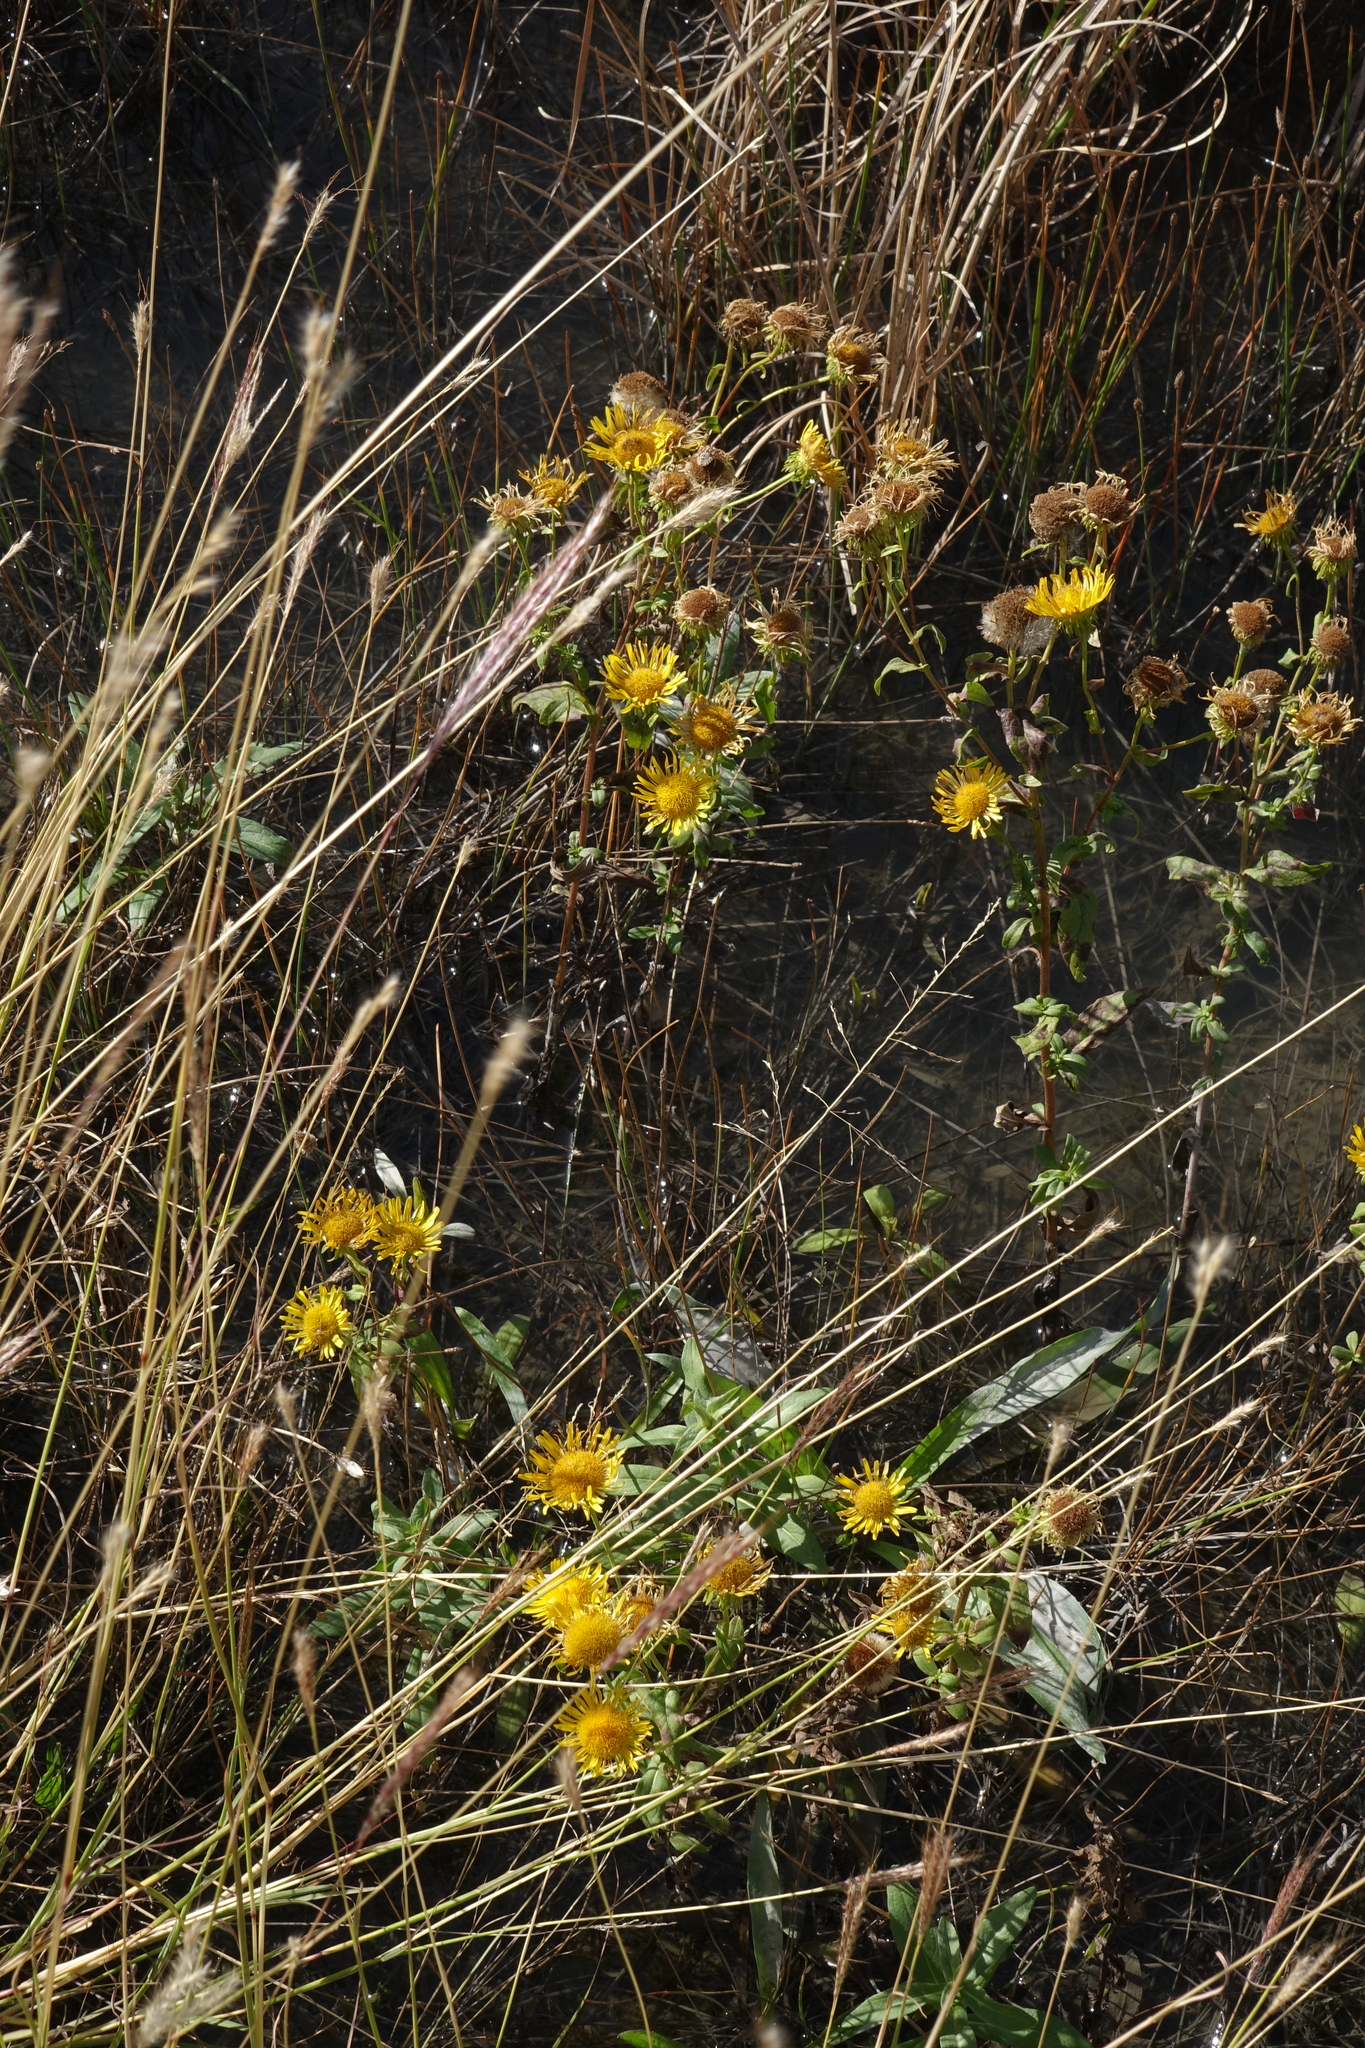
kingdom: Plantae
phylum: Tracheophyta
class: Magnoliopsida
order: Asterales
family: Asteraceae
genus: Pentanema
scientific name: Pentanema britannicum
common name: British elecampane
